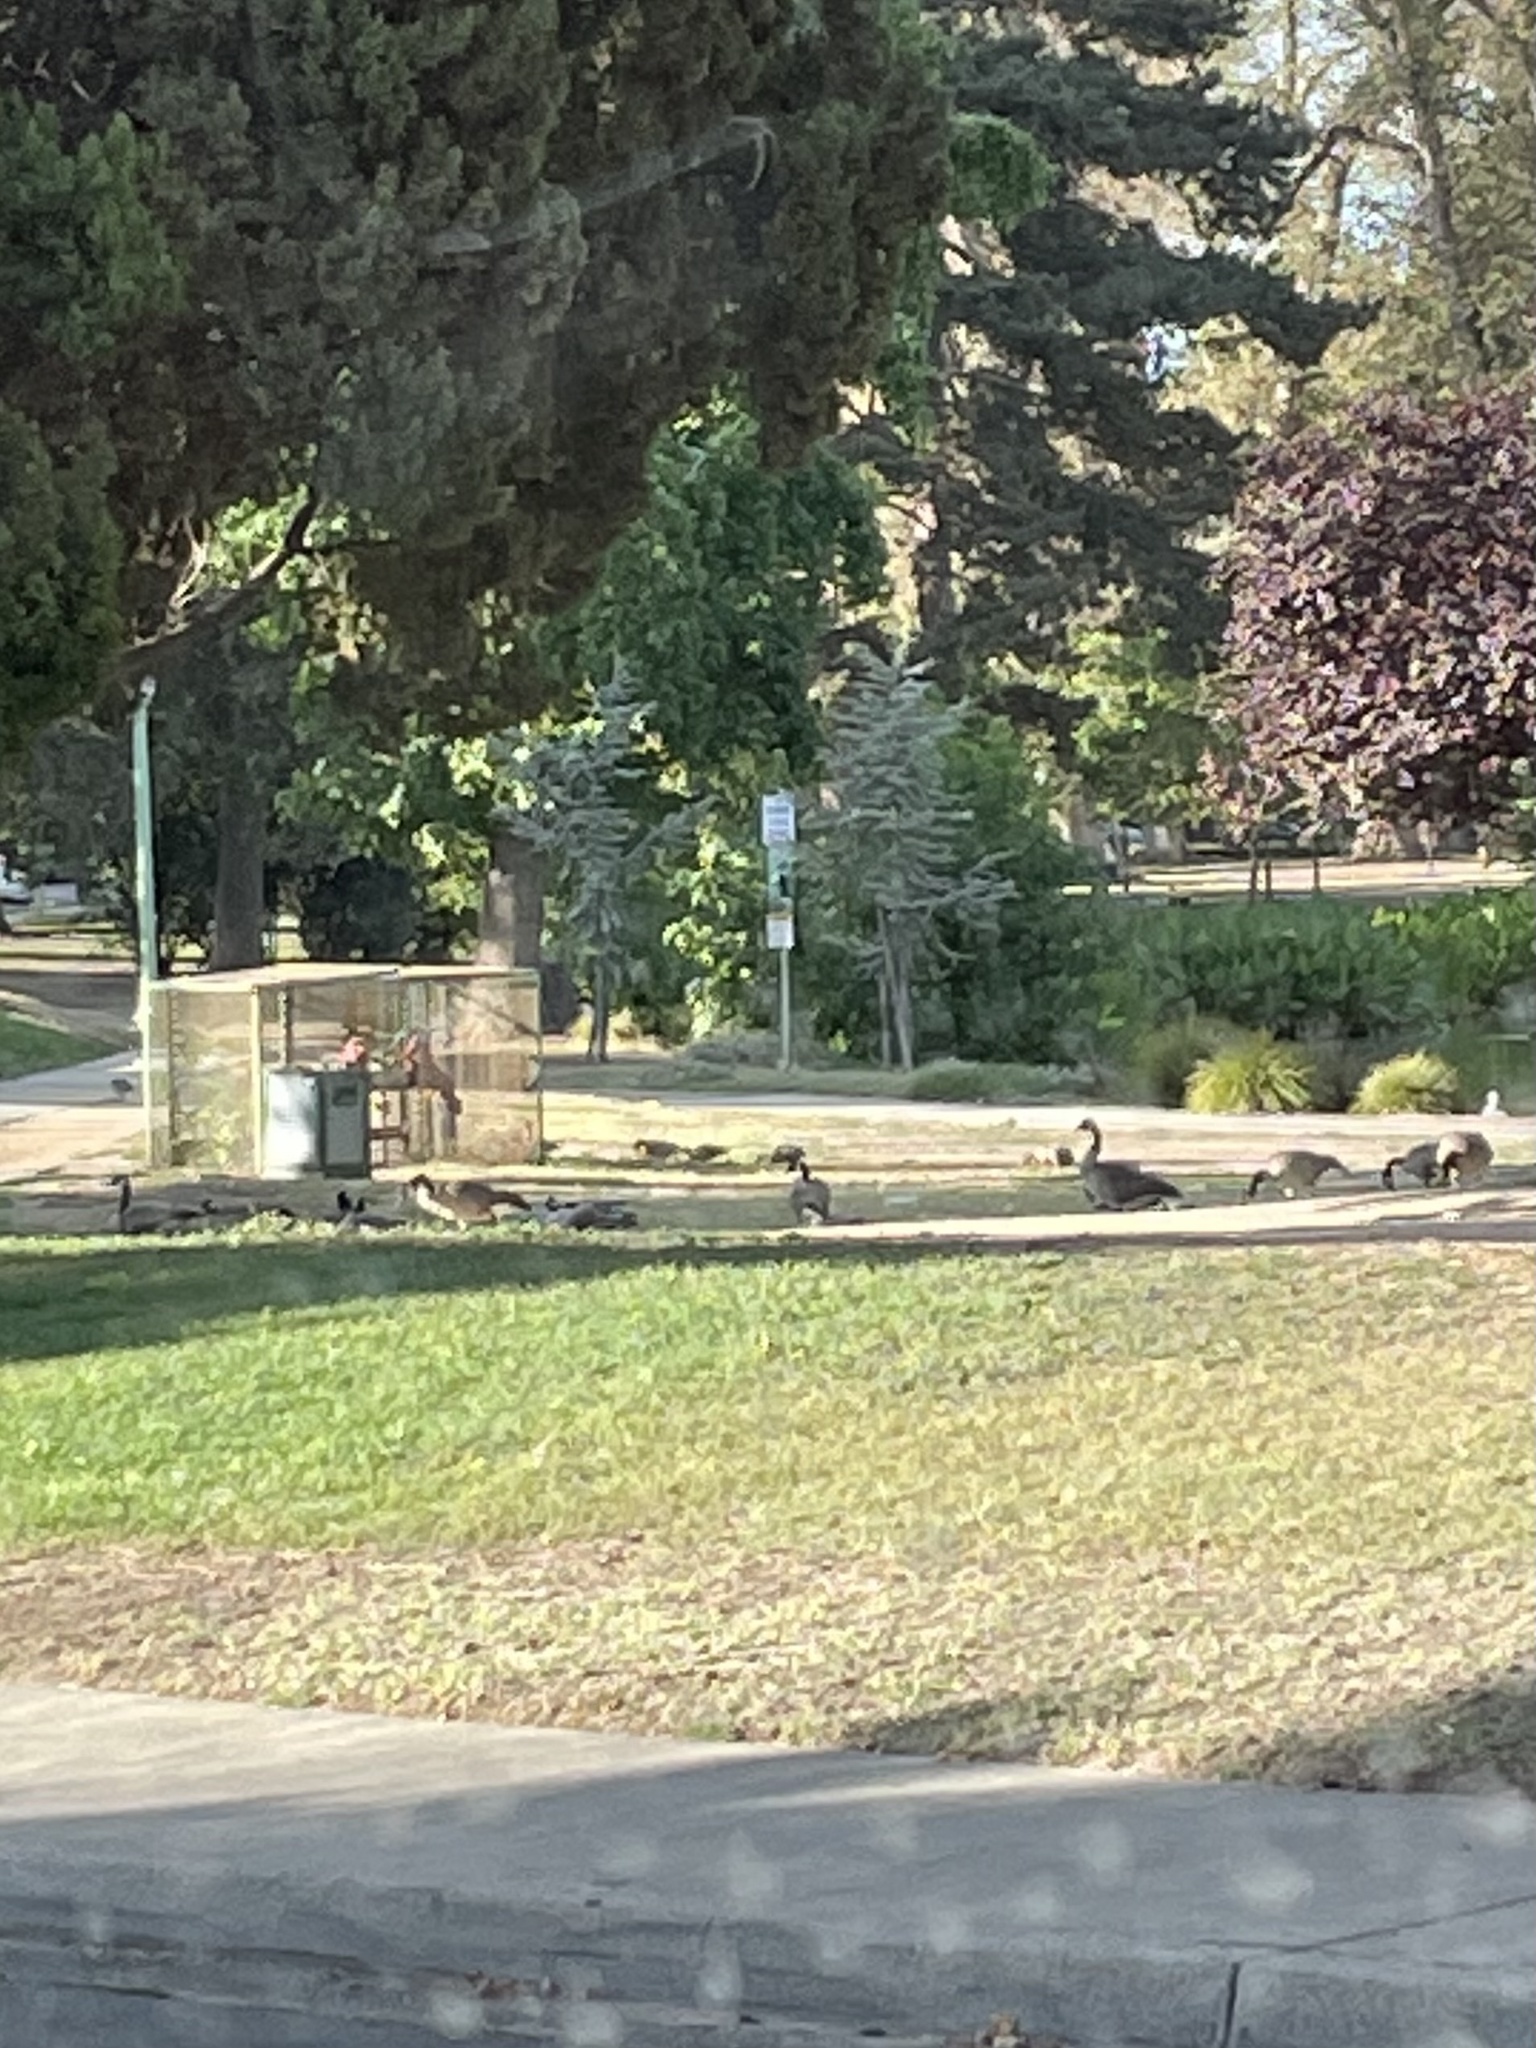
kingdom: Animalia
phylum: Chordata
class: Aves
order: Anseriformes
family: Anatidae
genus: Branta
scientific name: Branta canadensis
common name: Canada goose
